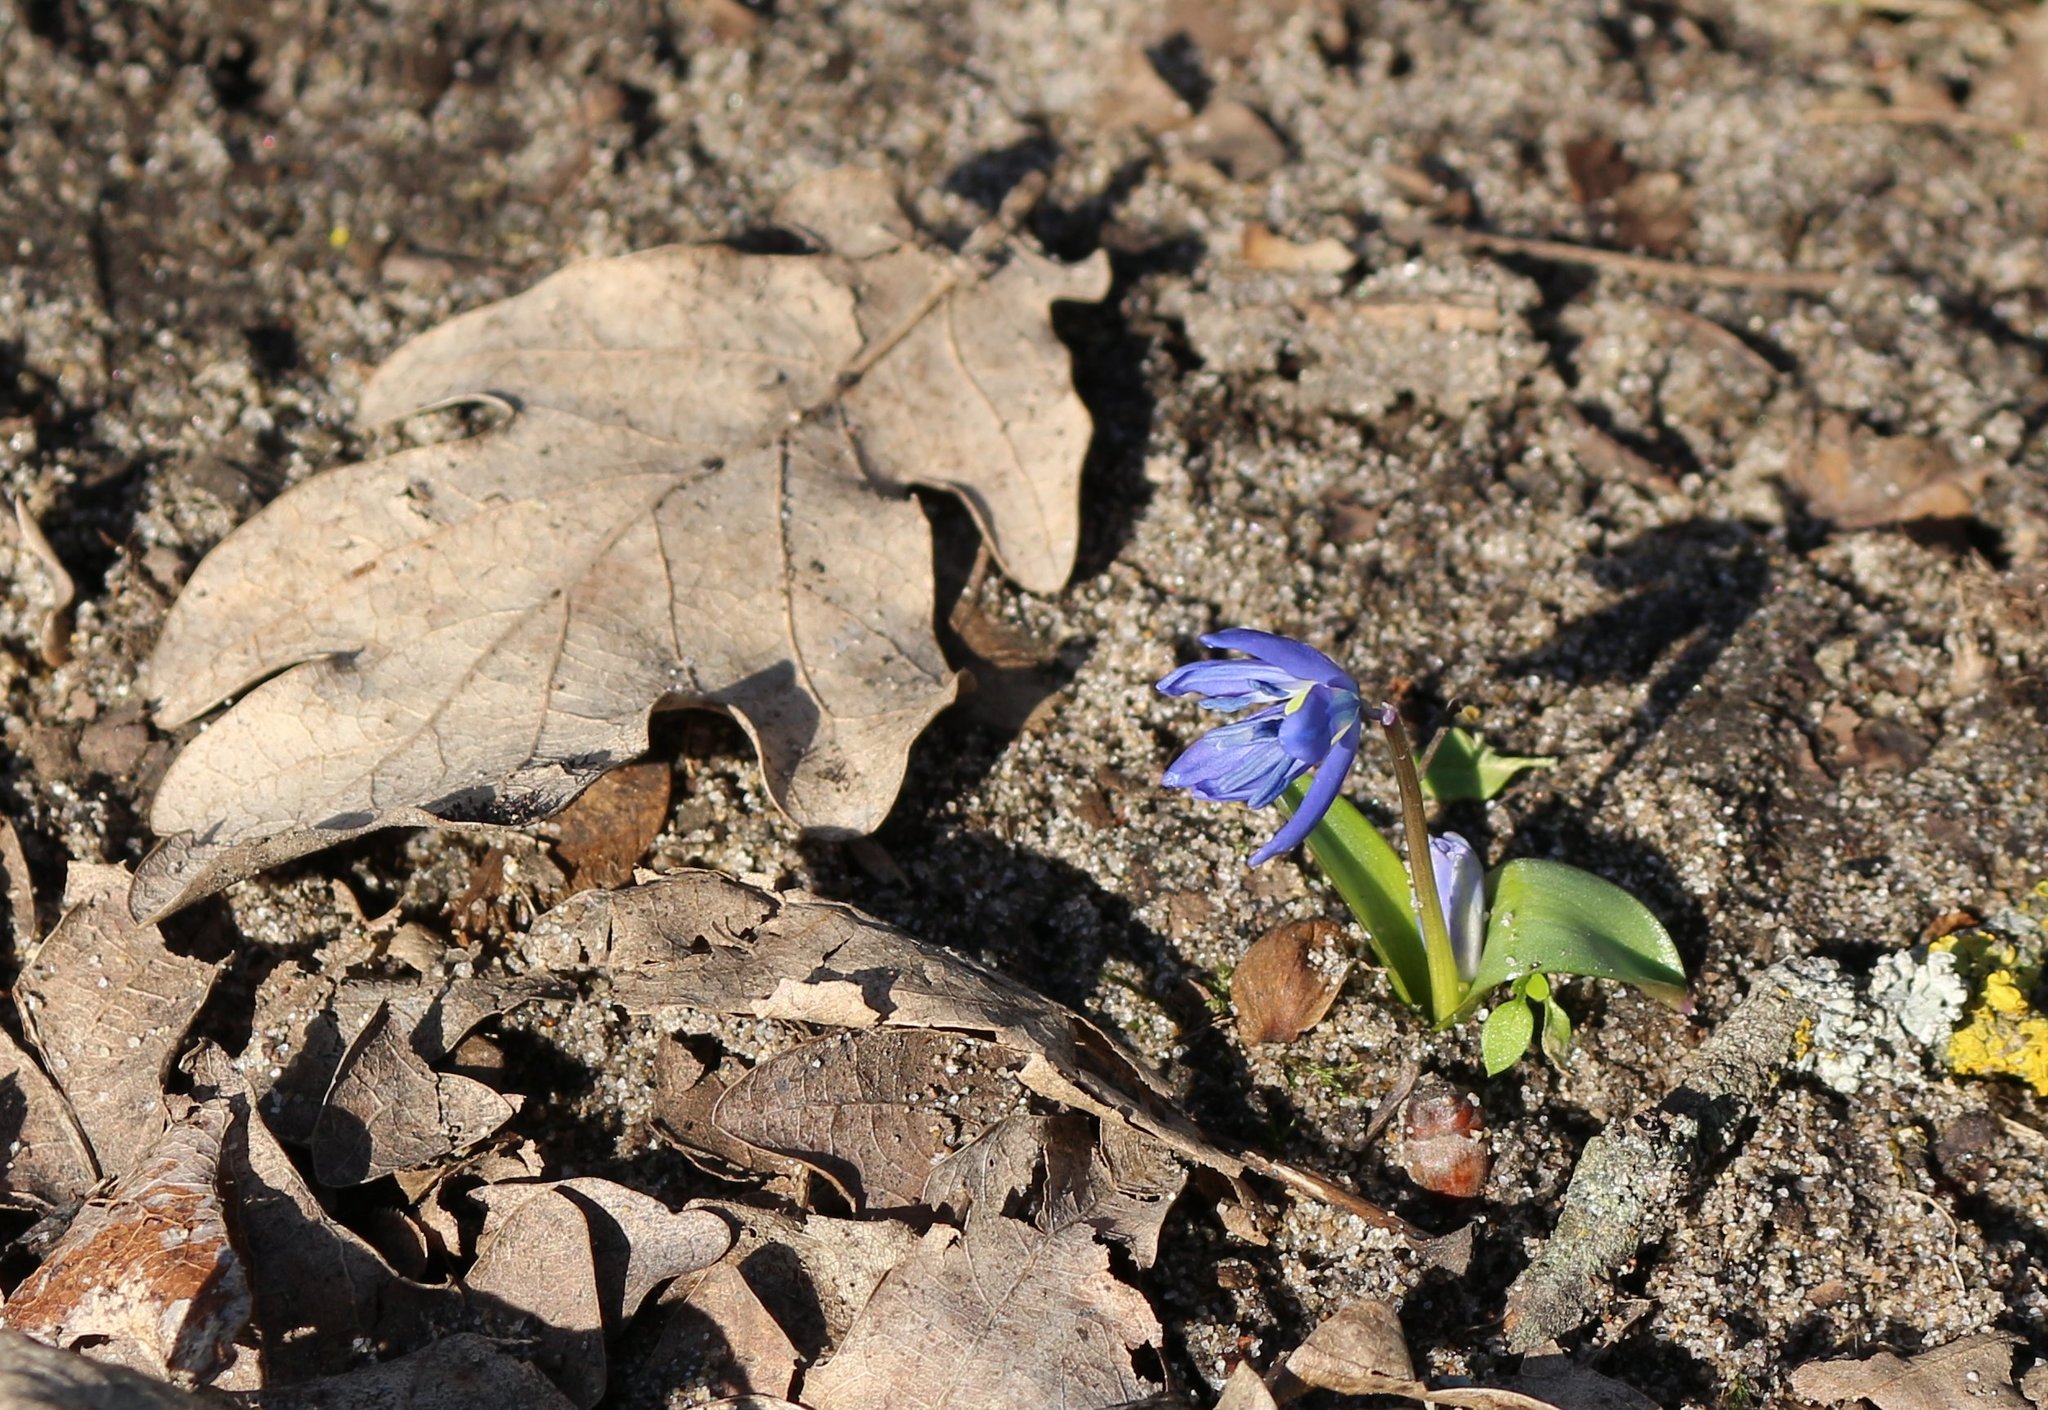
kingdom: Plantae
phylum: Tracheophyta
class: Liliopsida
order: Asparagales
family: Asparagaceae
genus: Scilla
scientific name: Scilla siberica
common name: Siberian squill
